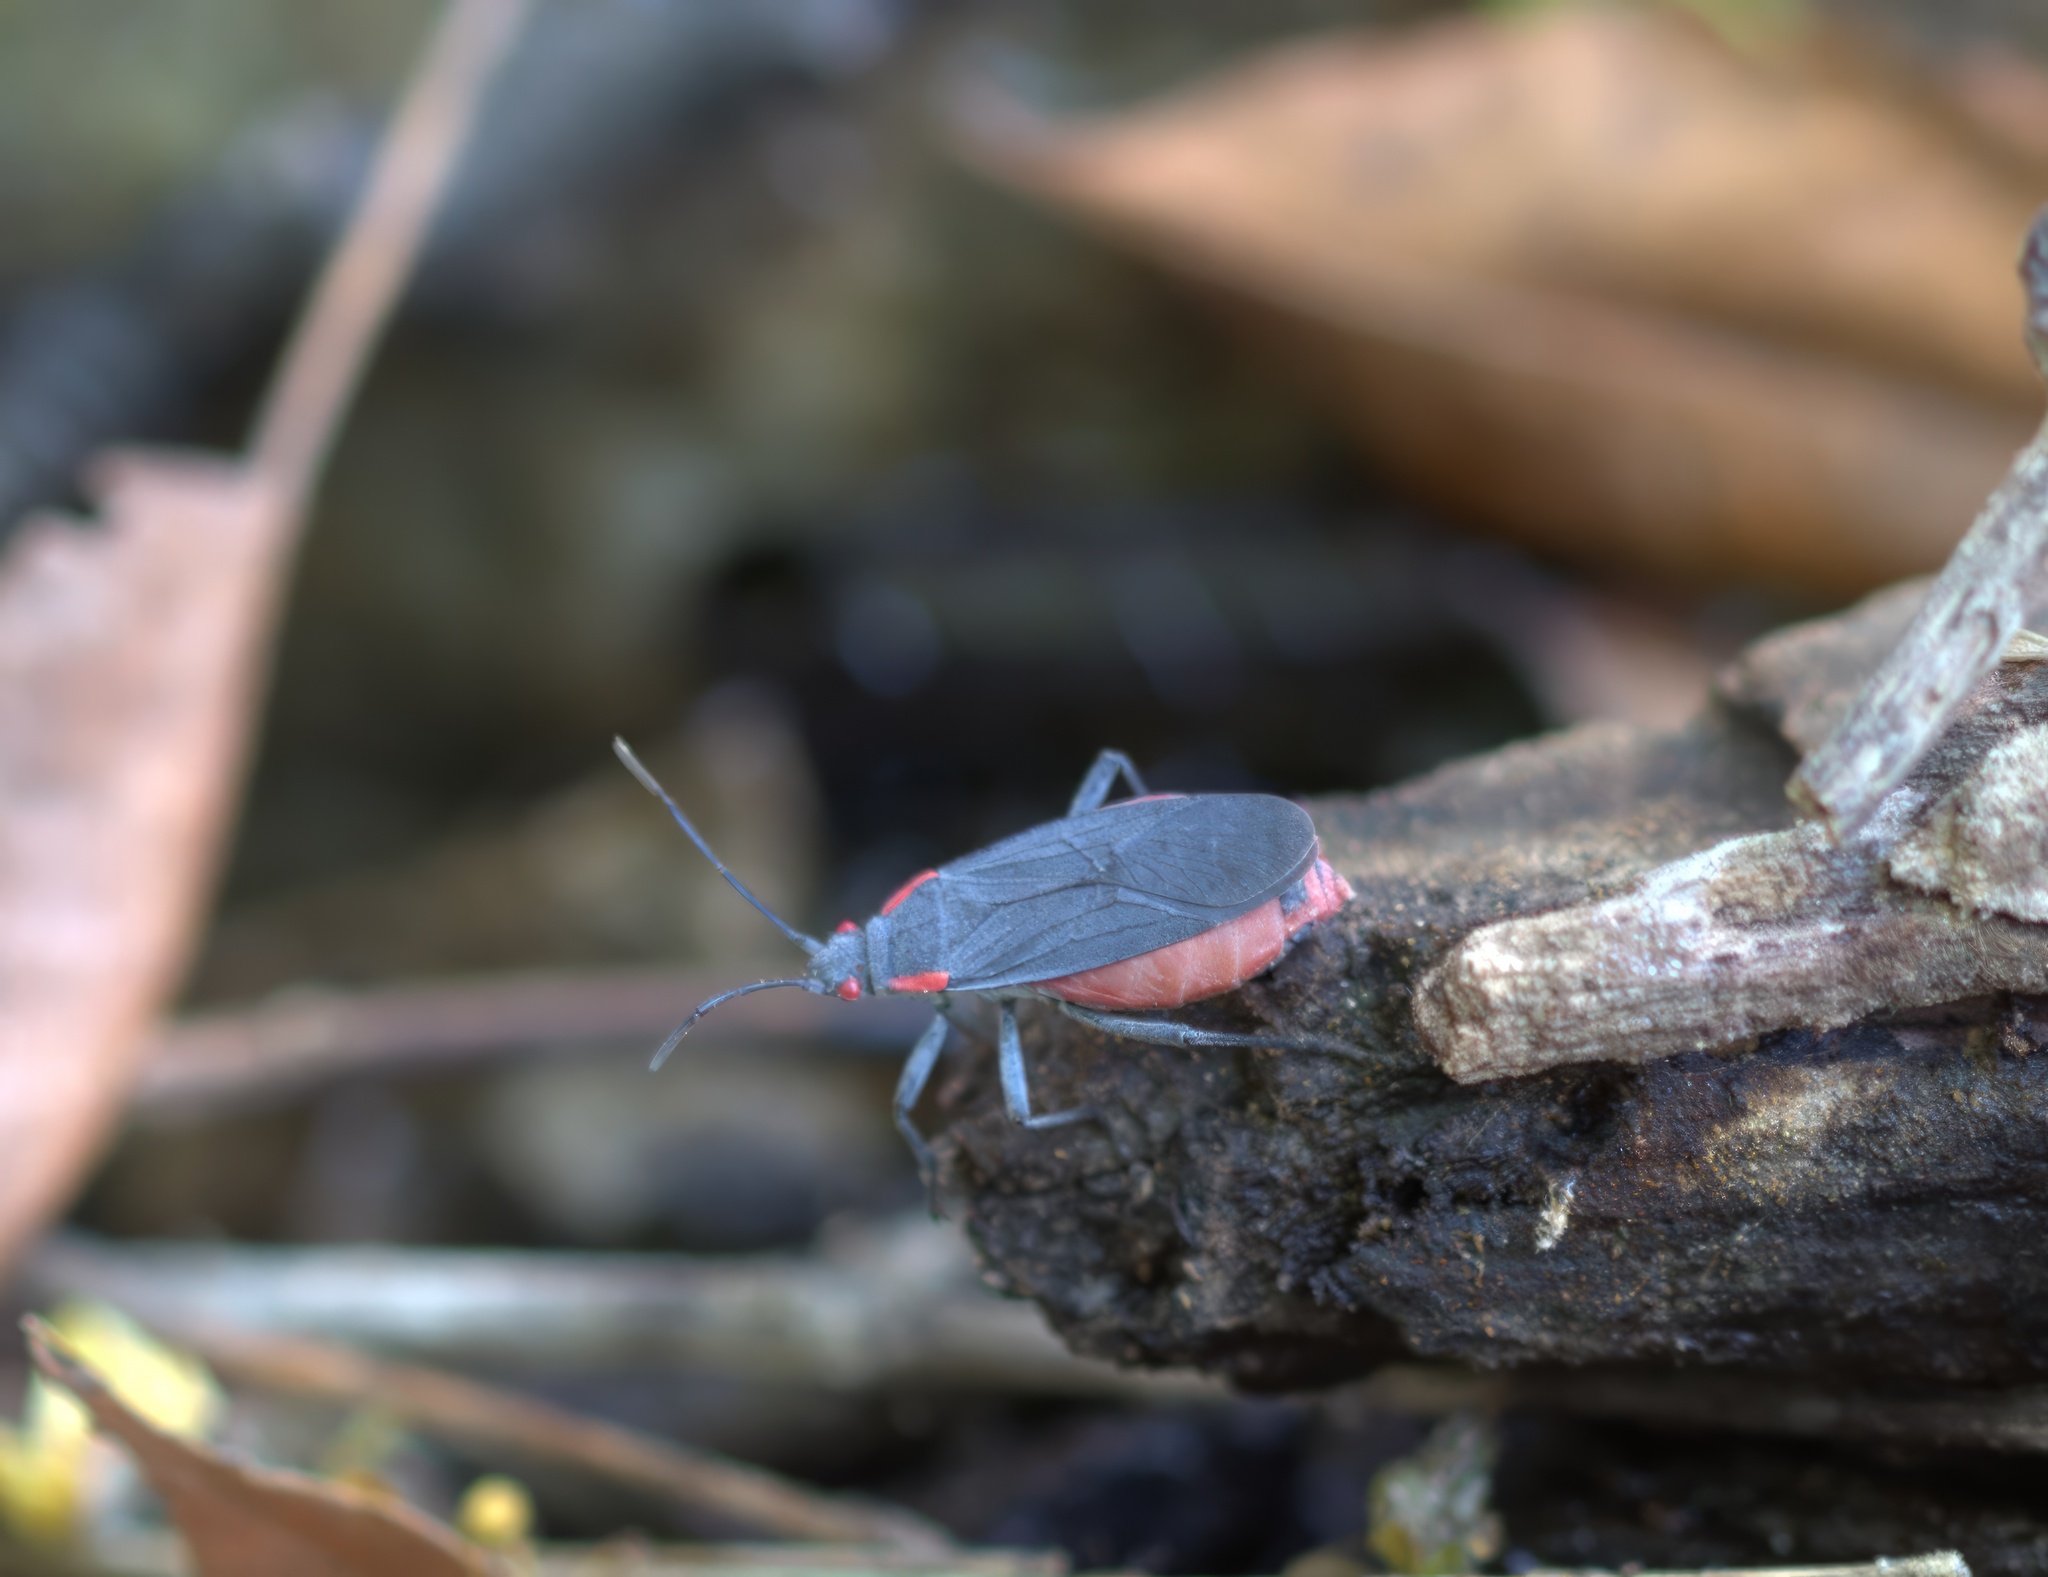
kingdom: Animalia
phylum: Arthropoda
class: Insecta
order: Hemiptera
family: Rhopalidae
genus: Jadera
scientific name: Jadera haematoloma
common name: Red-shouldered bug
